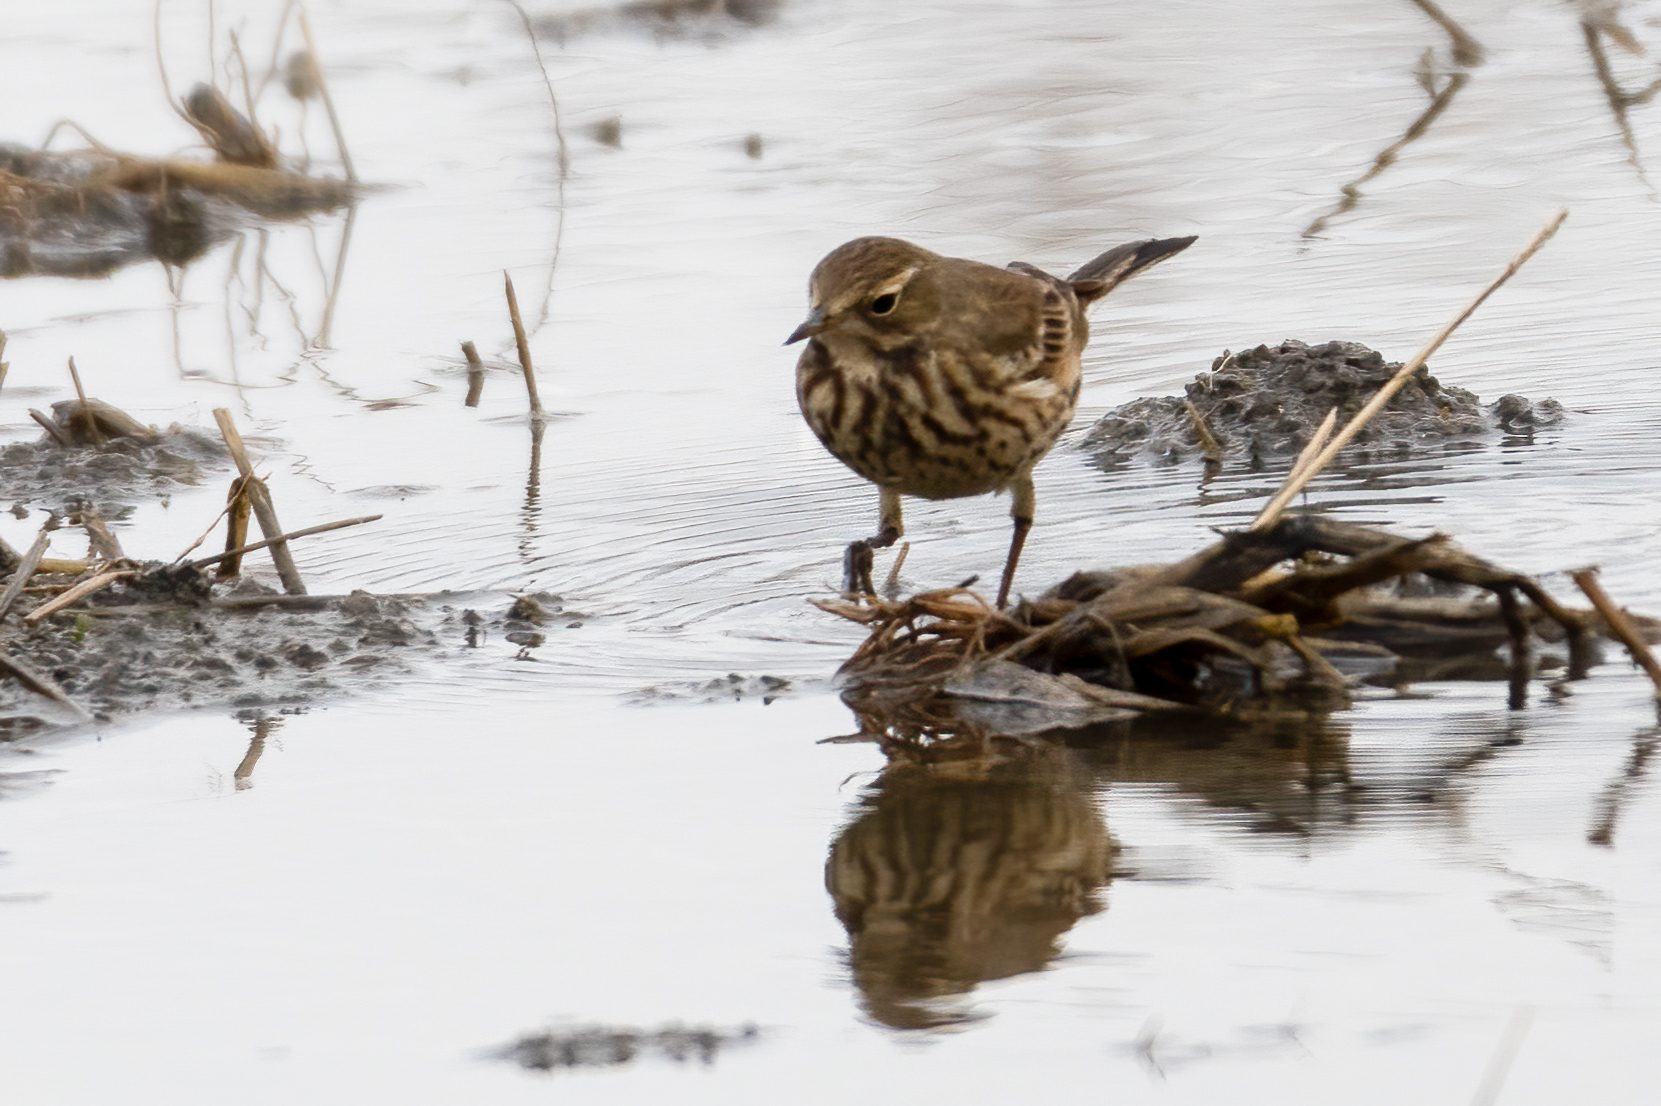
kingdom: Animalia
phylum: Chordata
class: Aves
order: Passeriformes
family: Motacillidae
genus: Anthus
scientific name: Anthus rubescens
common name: Buff-bellied pipit
